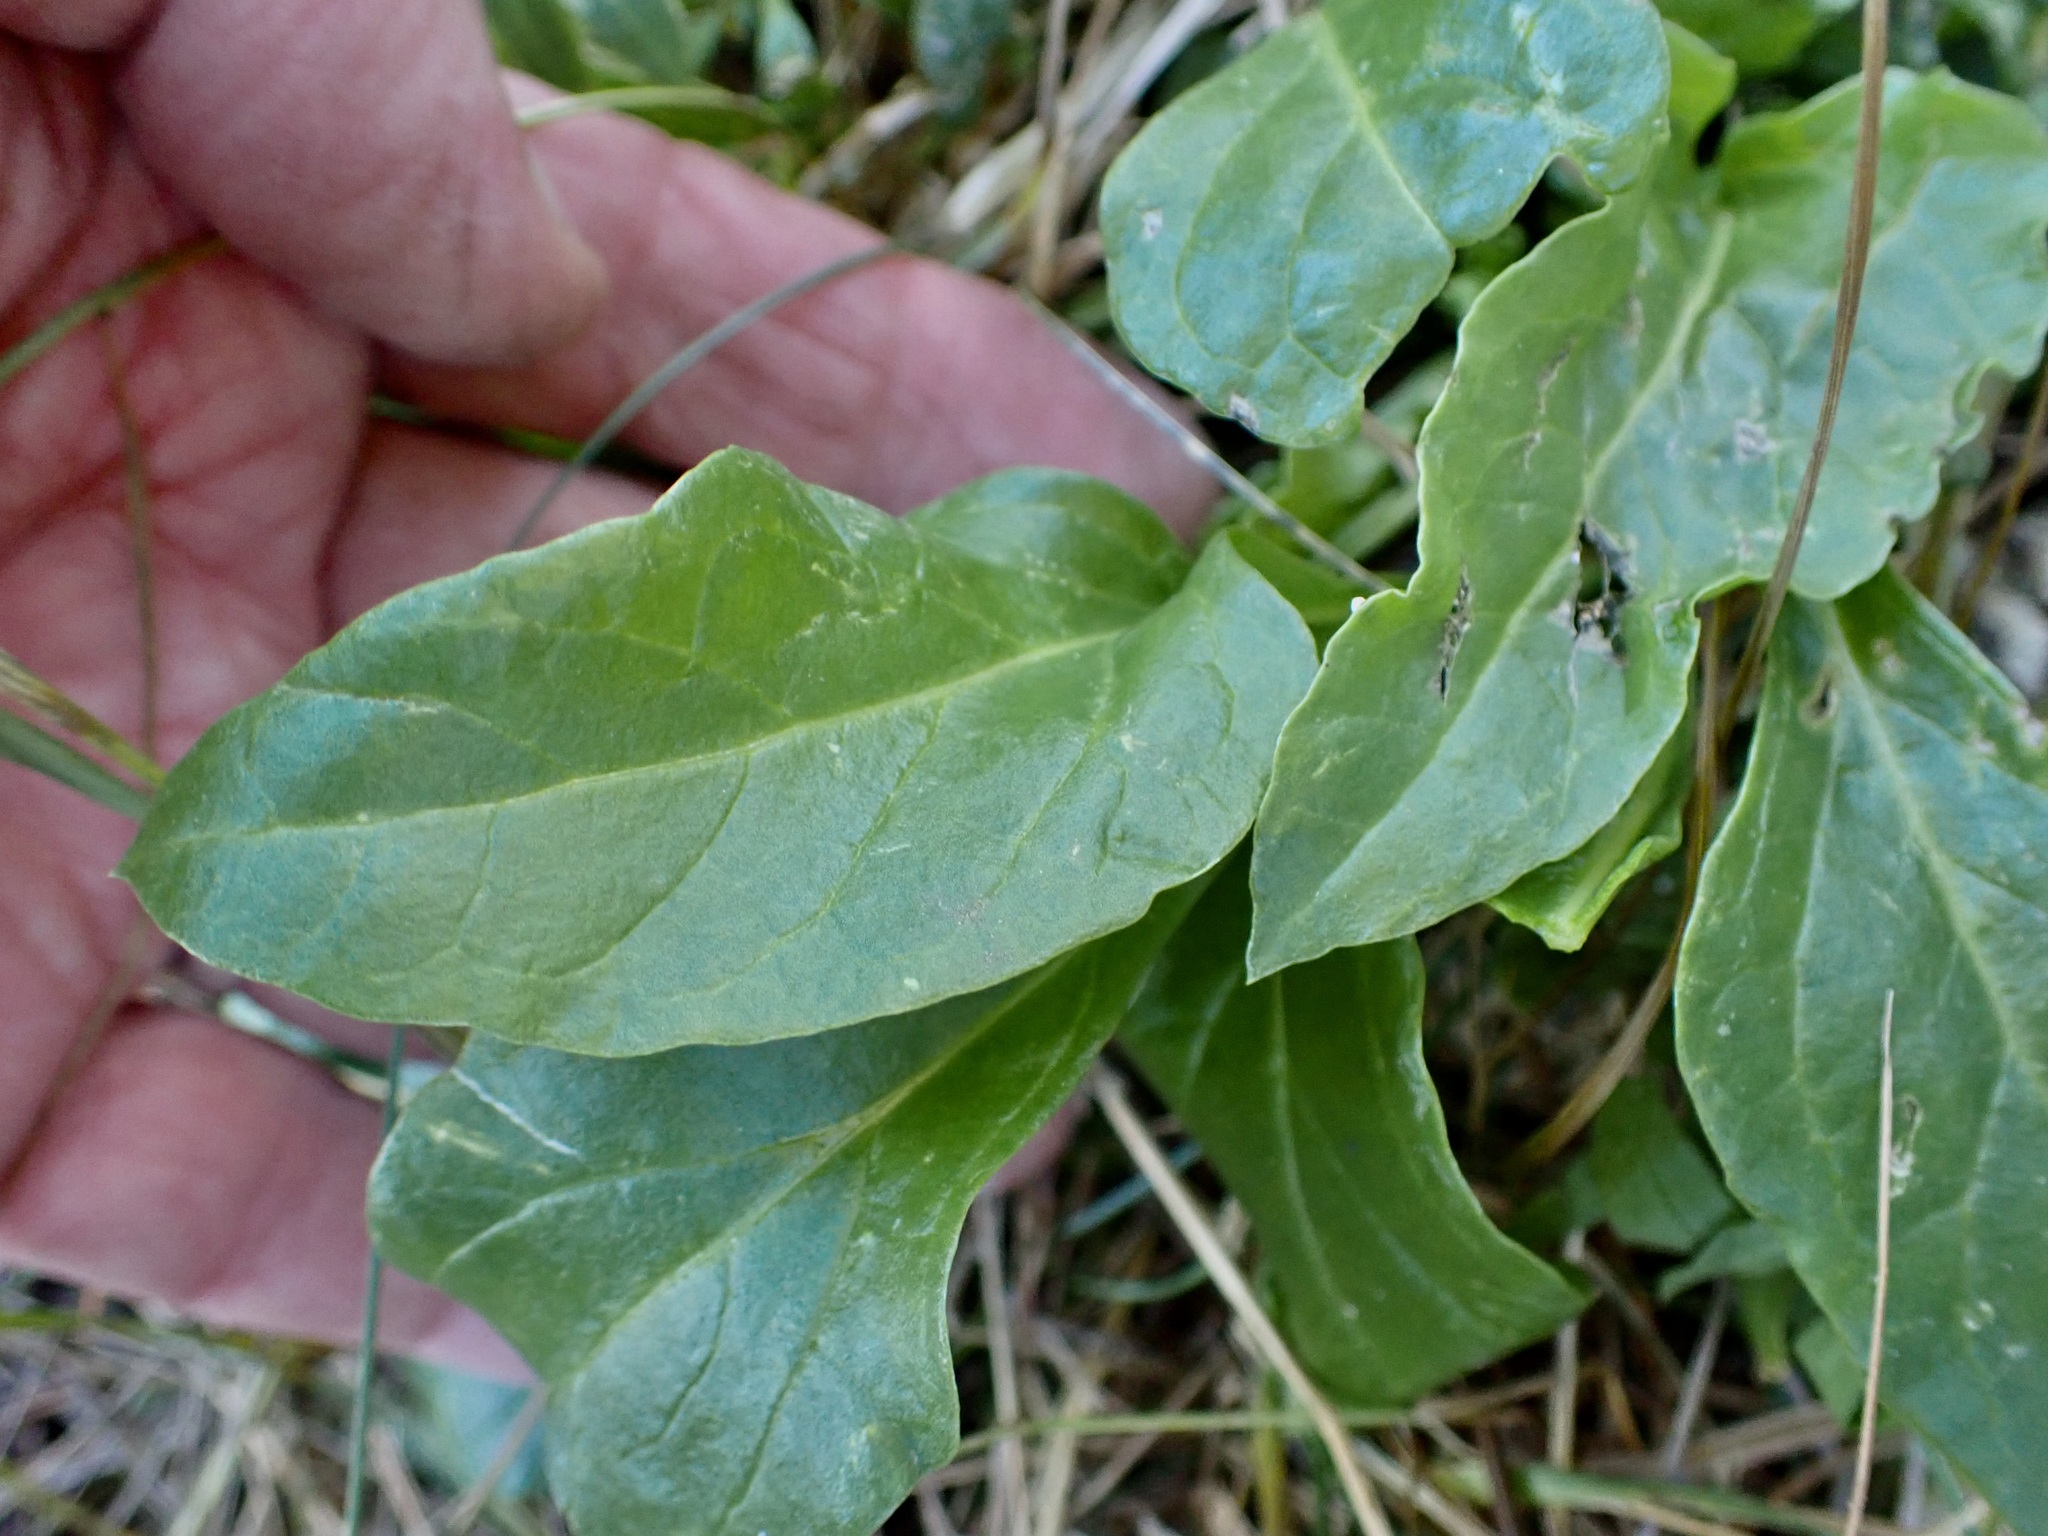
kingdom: Plantae
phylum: Tracheophyta
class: Magnoliopsida
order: Caryophyllales
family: Amaranthaceae
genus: Beta
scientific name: Beta vulgaris
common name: Beet
